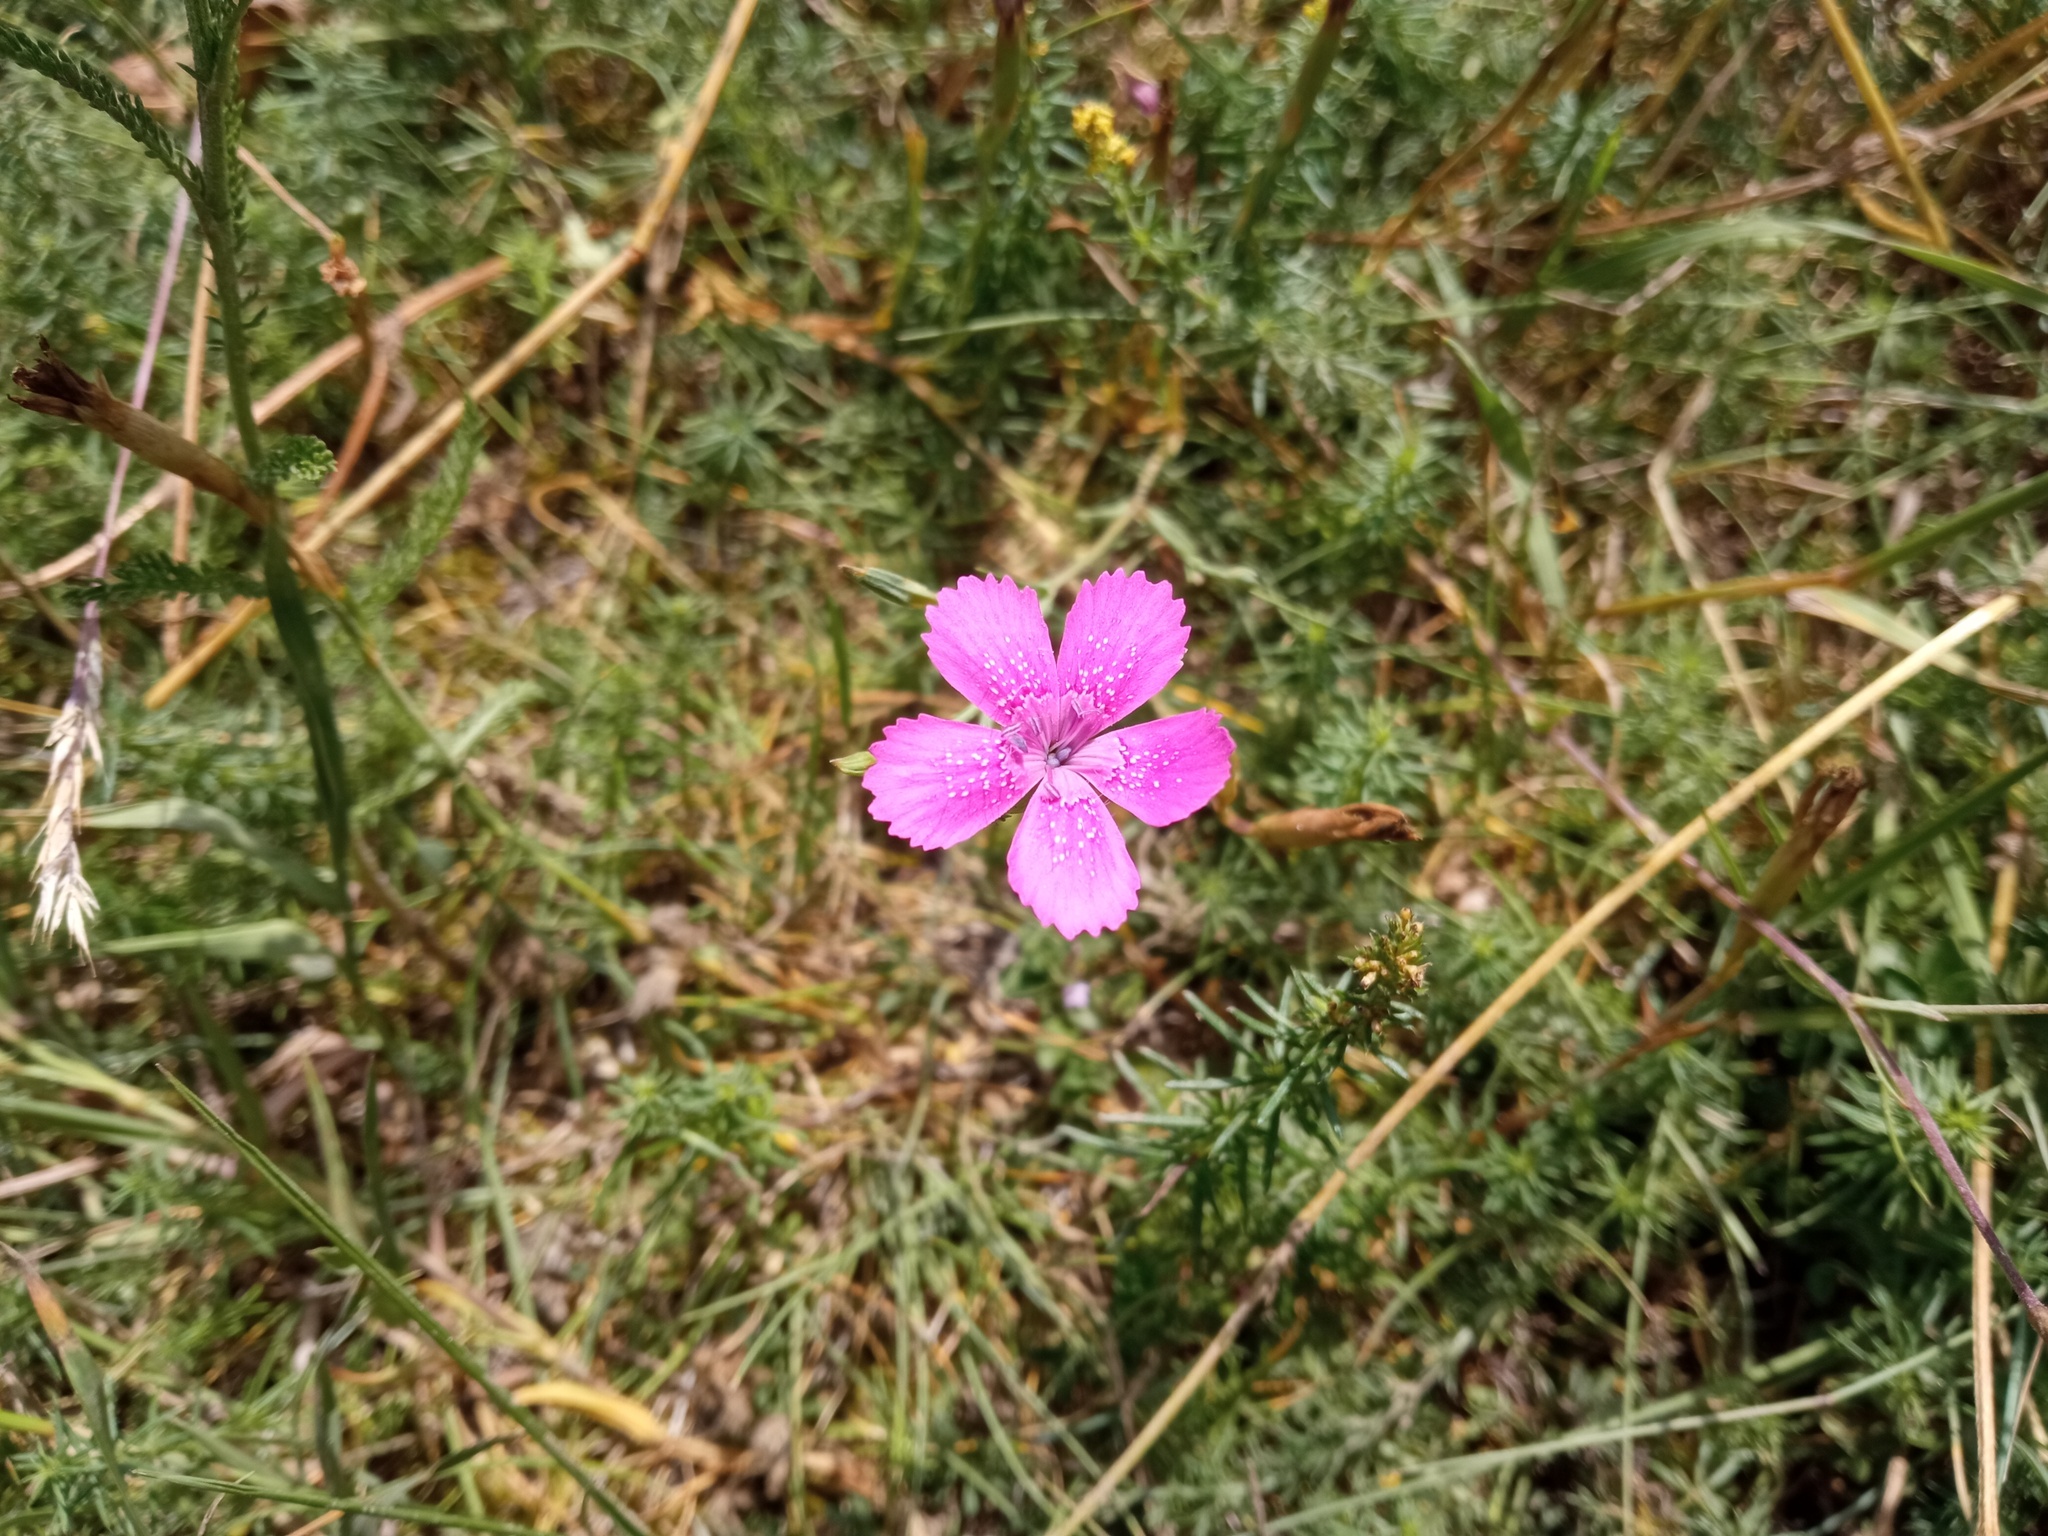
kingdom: Plantae
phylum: Tracheophyta
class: Magnoliopsida
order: Caryophyllales
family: Caryophyllaceae
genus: Dianthus
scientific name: Dianthus deltoides
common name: Maiden pink
